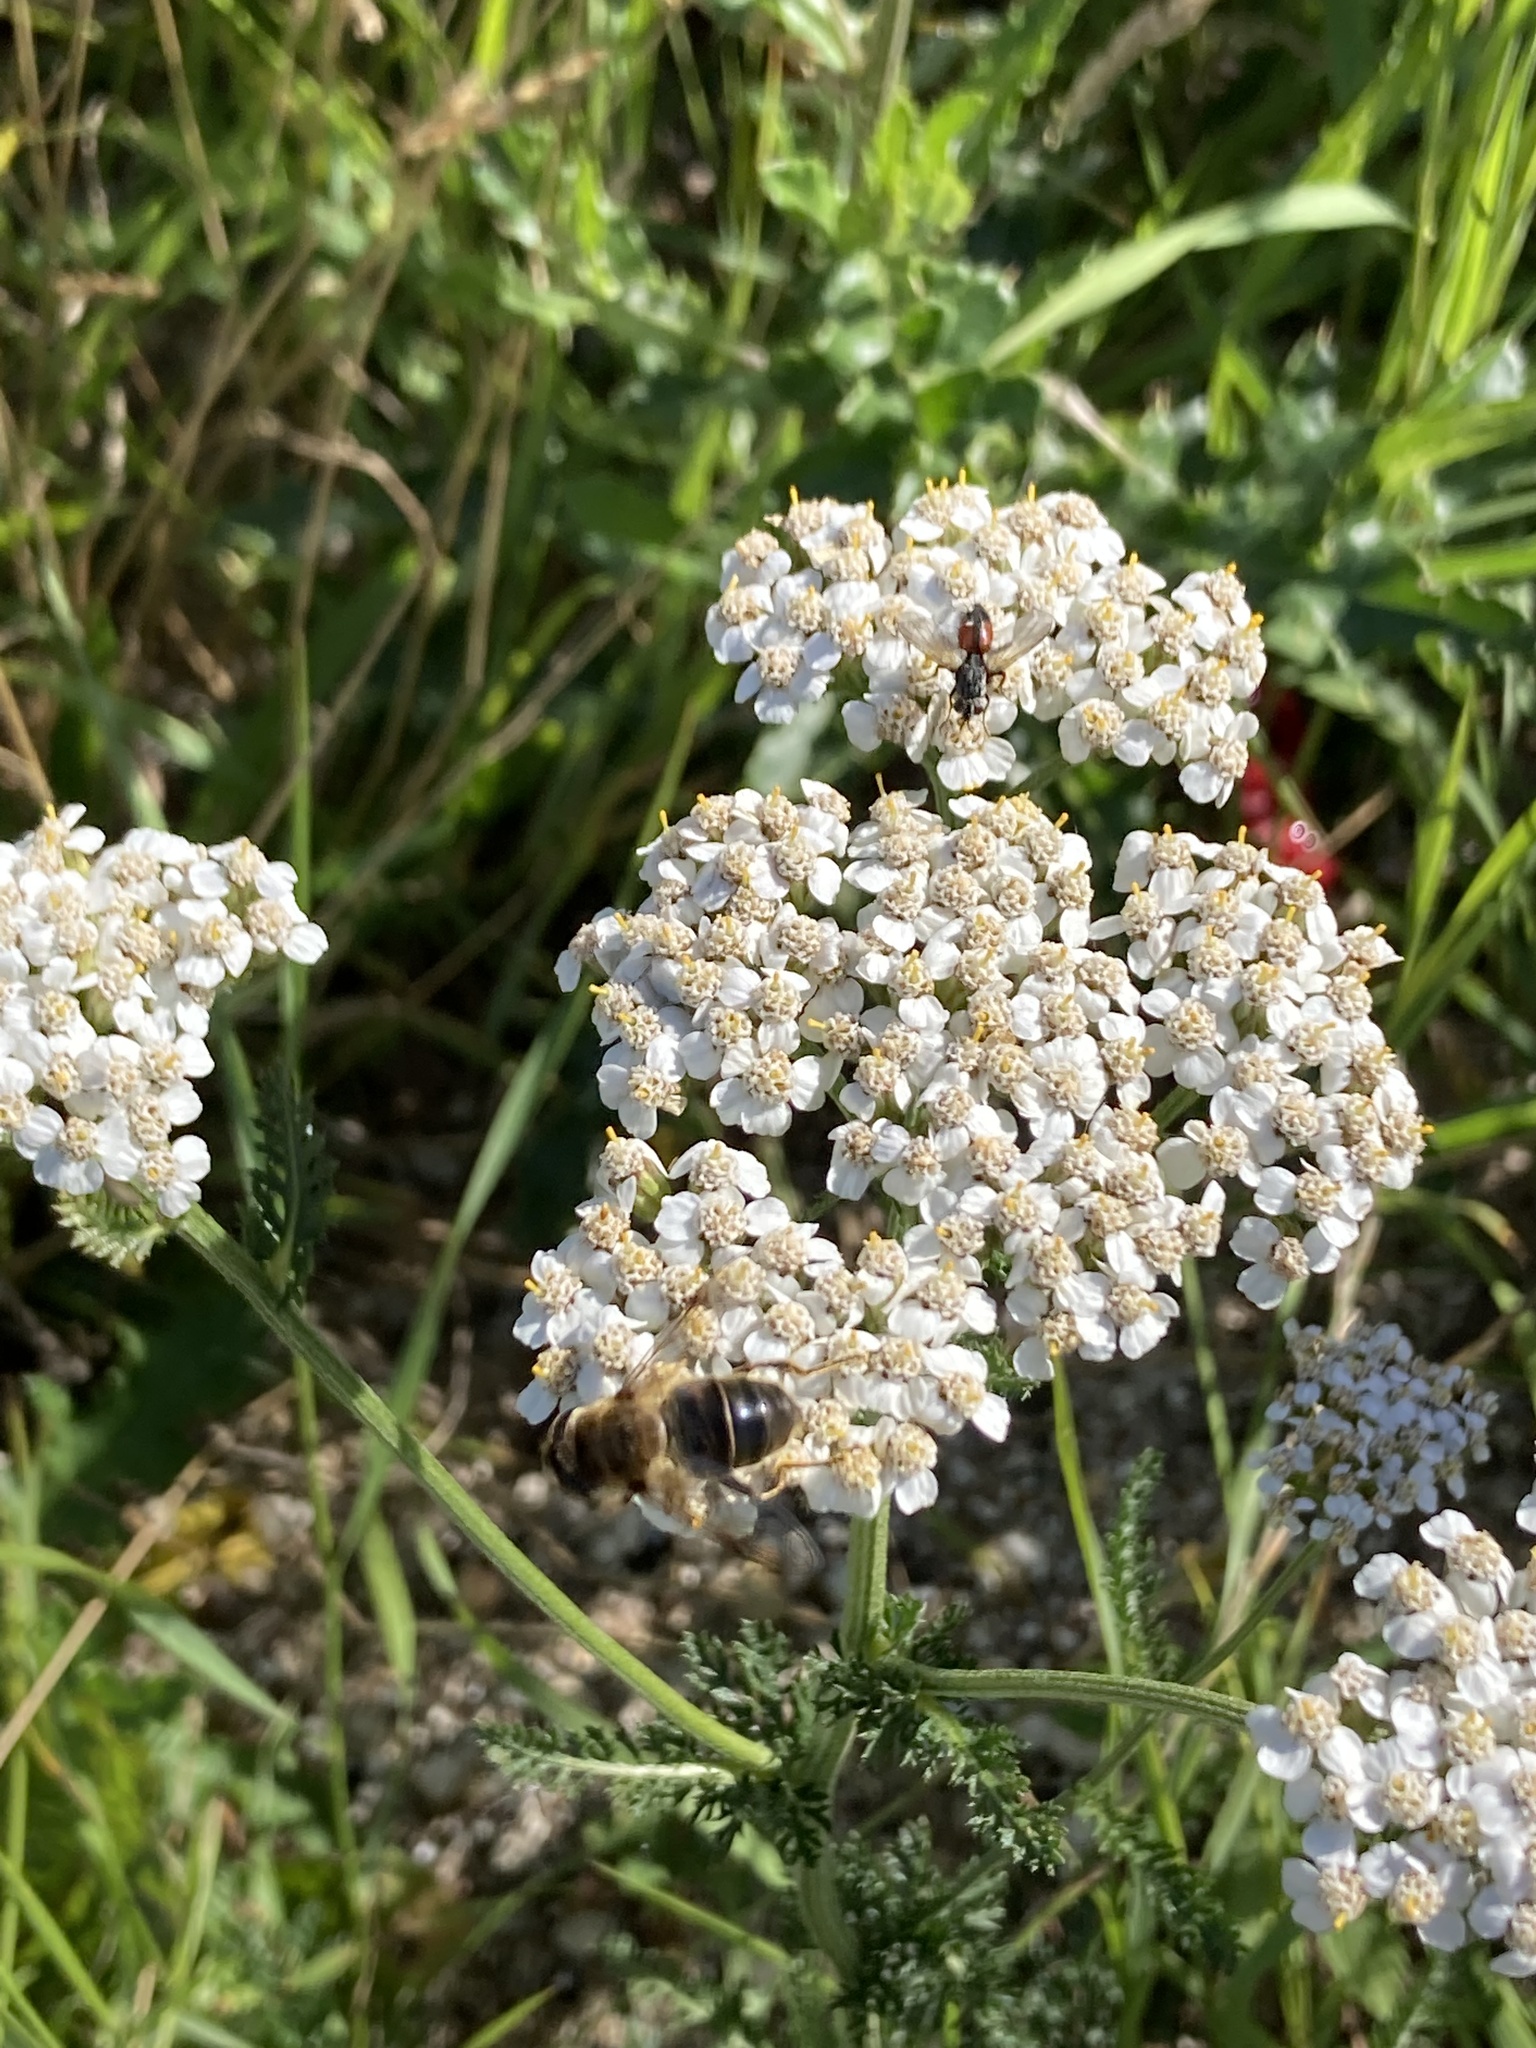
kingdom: Animalia
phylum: Arthropoda
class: Insecta
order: Diptera
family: Syrphidae
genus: Eristalis
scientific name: Eristalis tenax
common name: Drone fly
